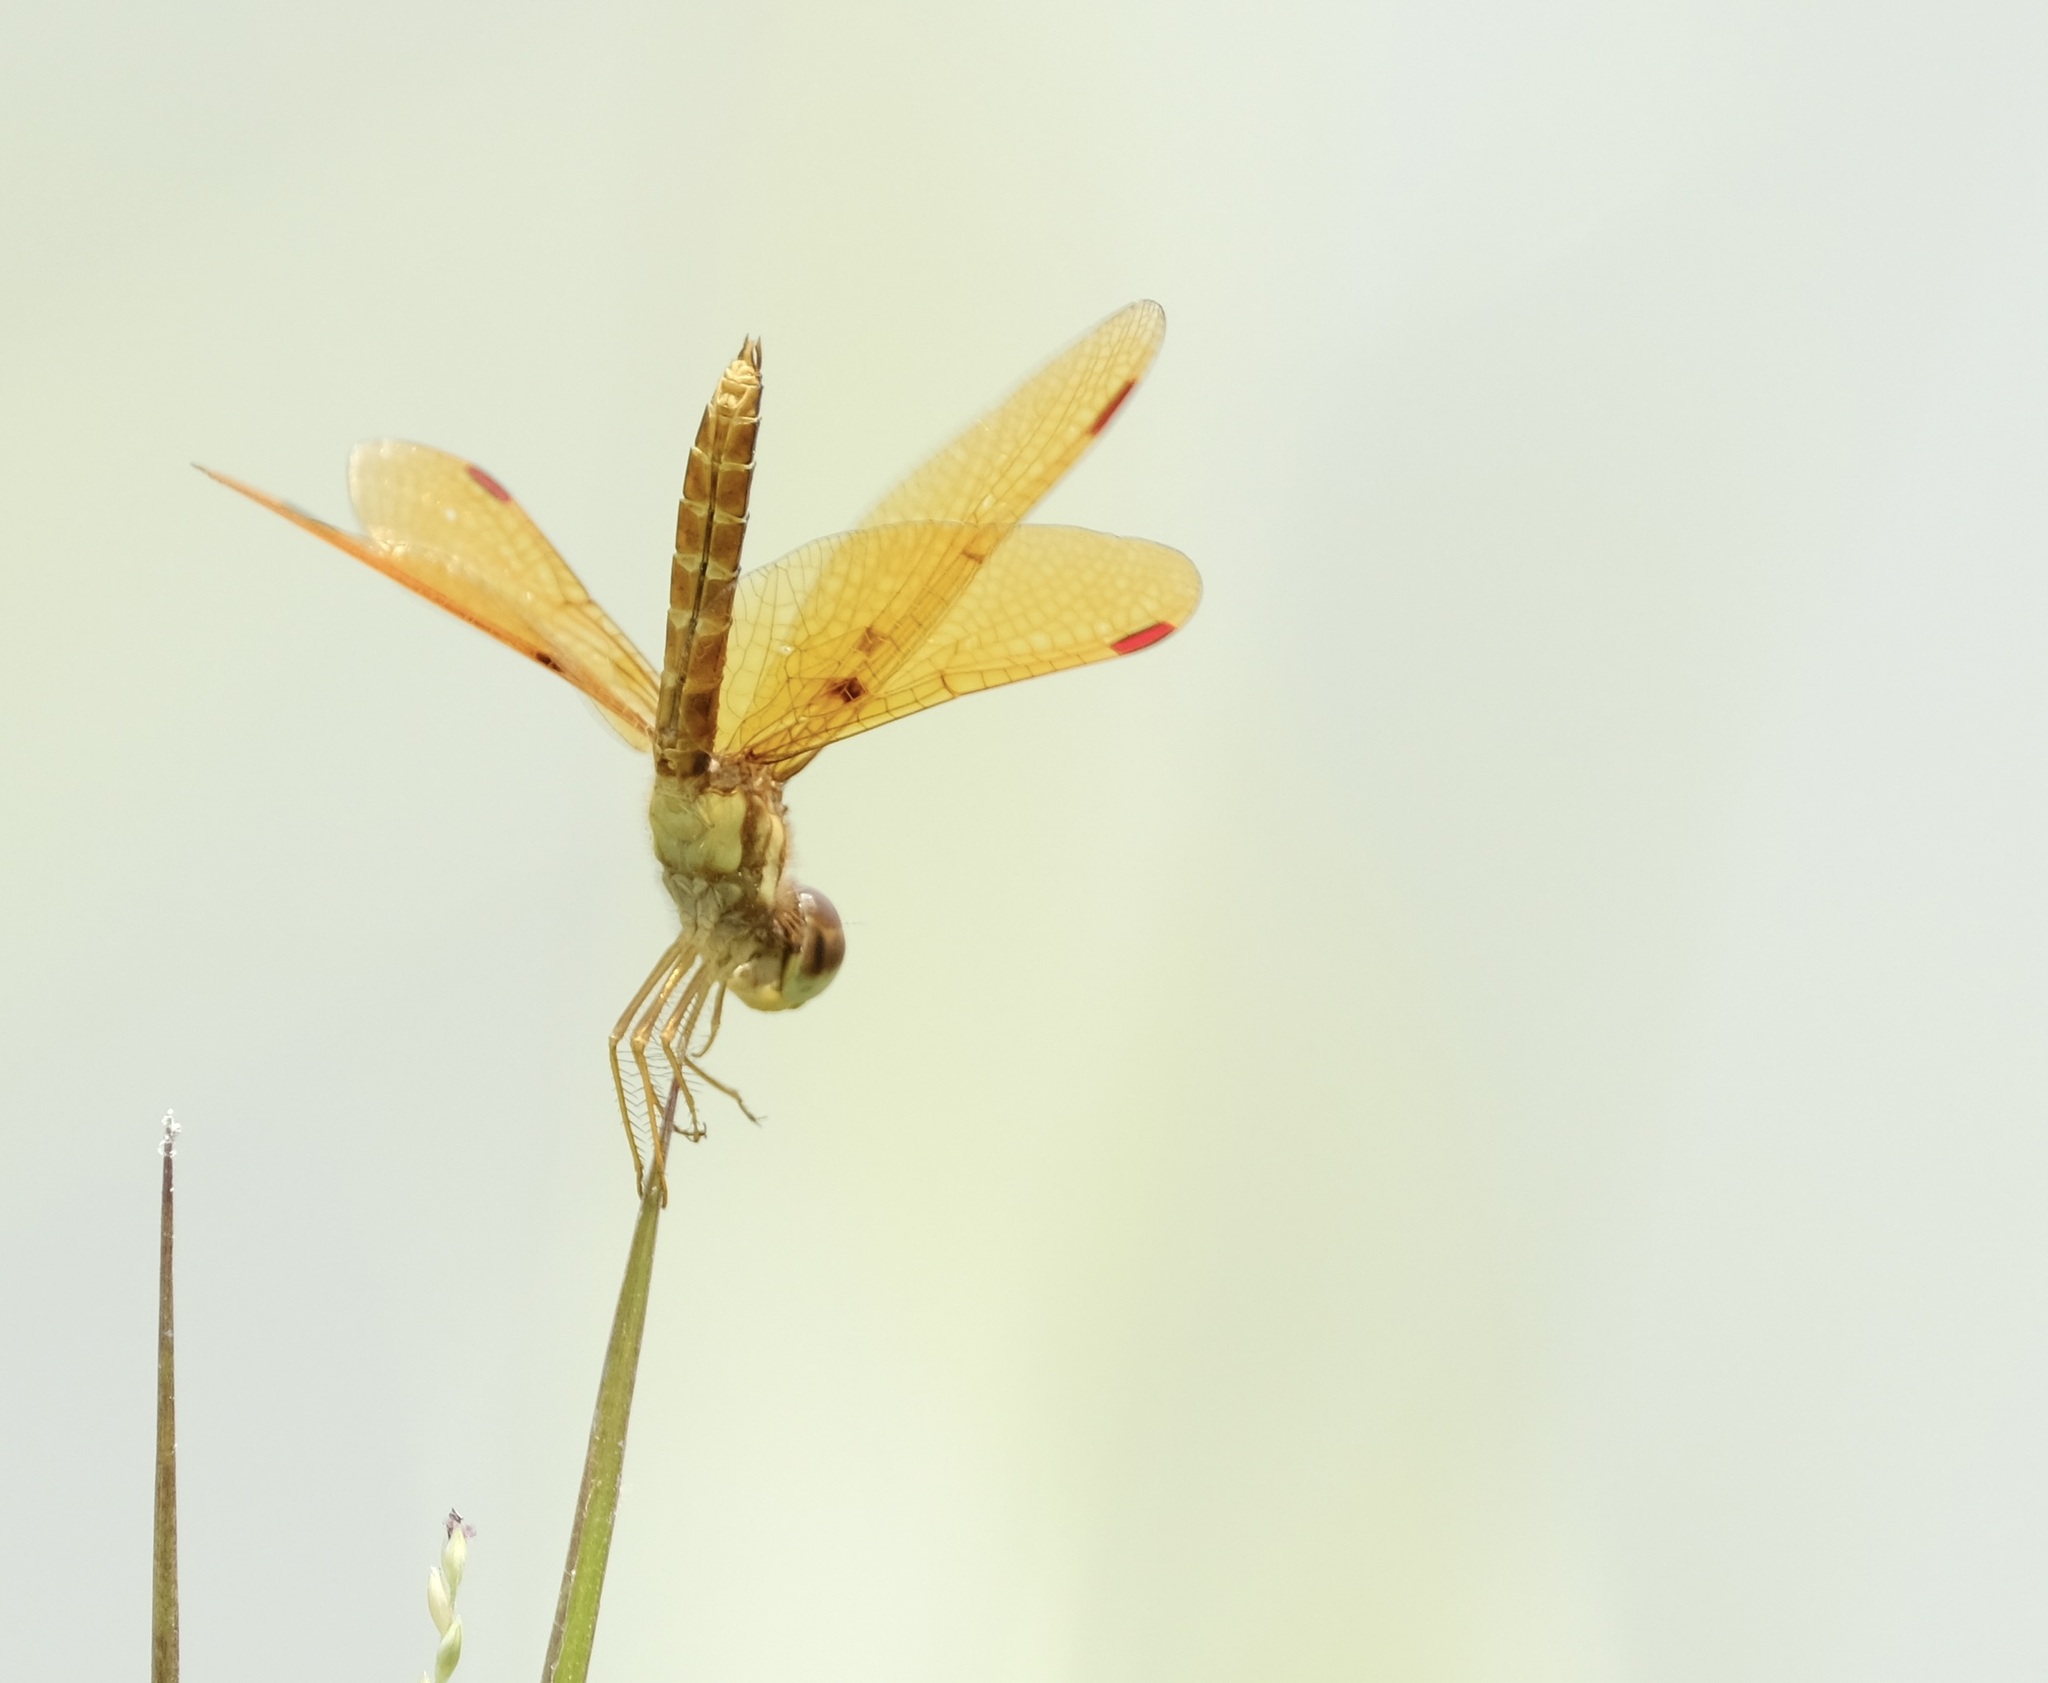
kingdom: Animalia
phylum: Arthropoda
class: Insecta
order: Odonata
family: Libellulidae
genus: Perithemis
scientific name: Perithemis tenera
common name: Eastern amberwing
